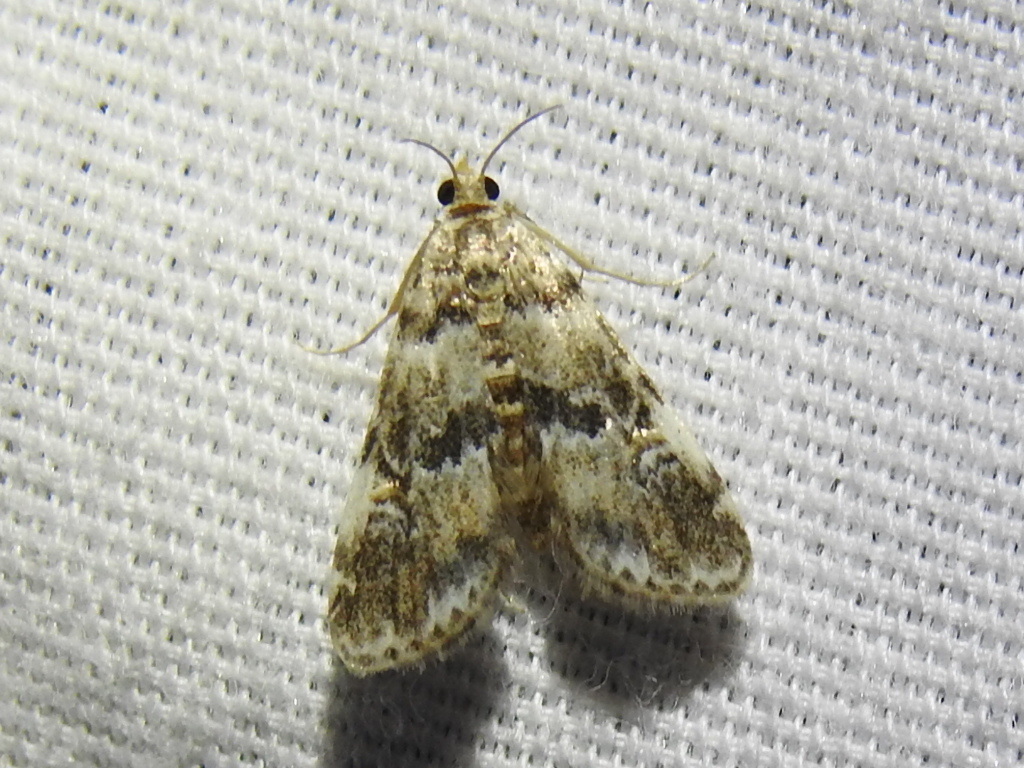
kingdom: Animalia
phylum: Arthropoda
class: Insecta
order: Lepidoptera
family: Crambidae
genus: Elophila
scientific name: Elophila obliteralis
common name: Waterlily leafcutter moth
